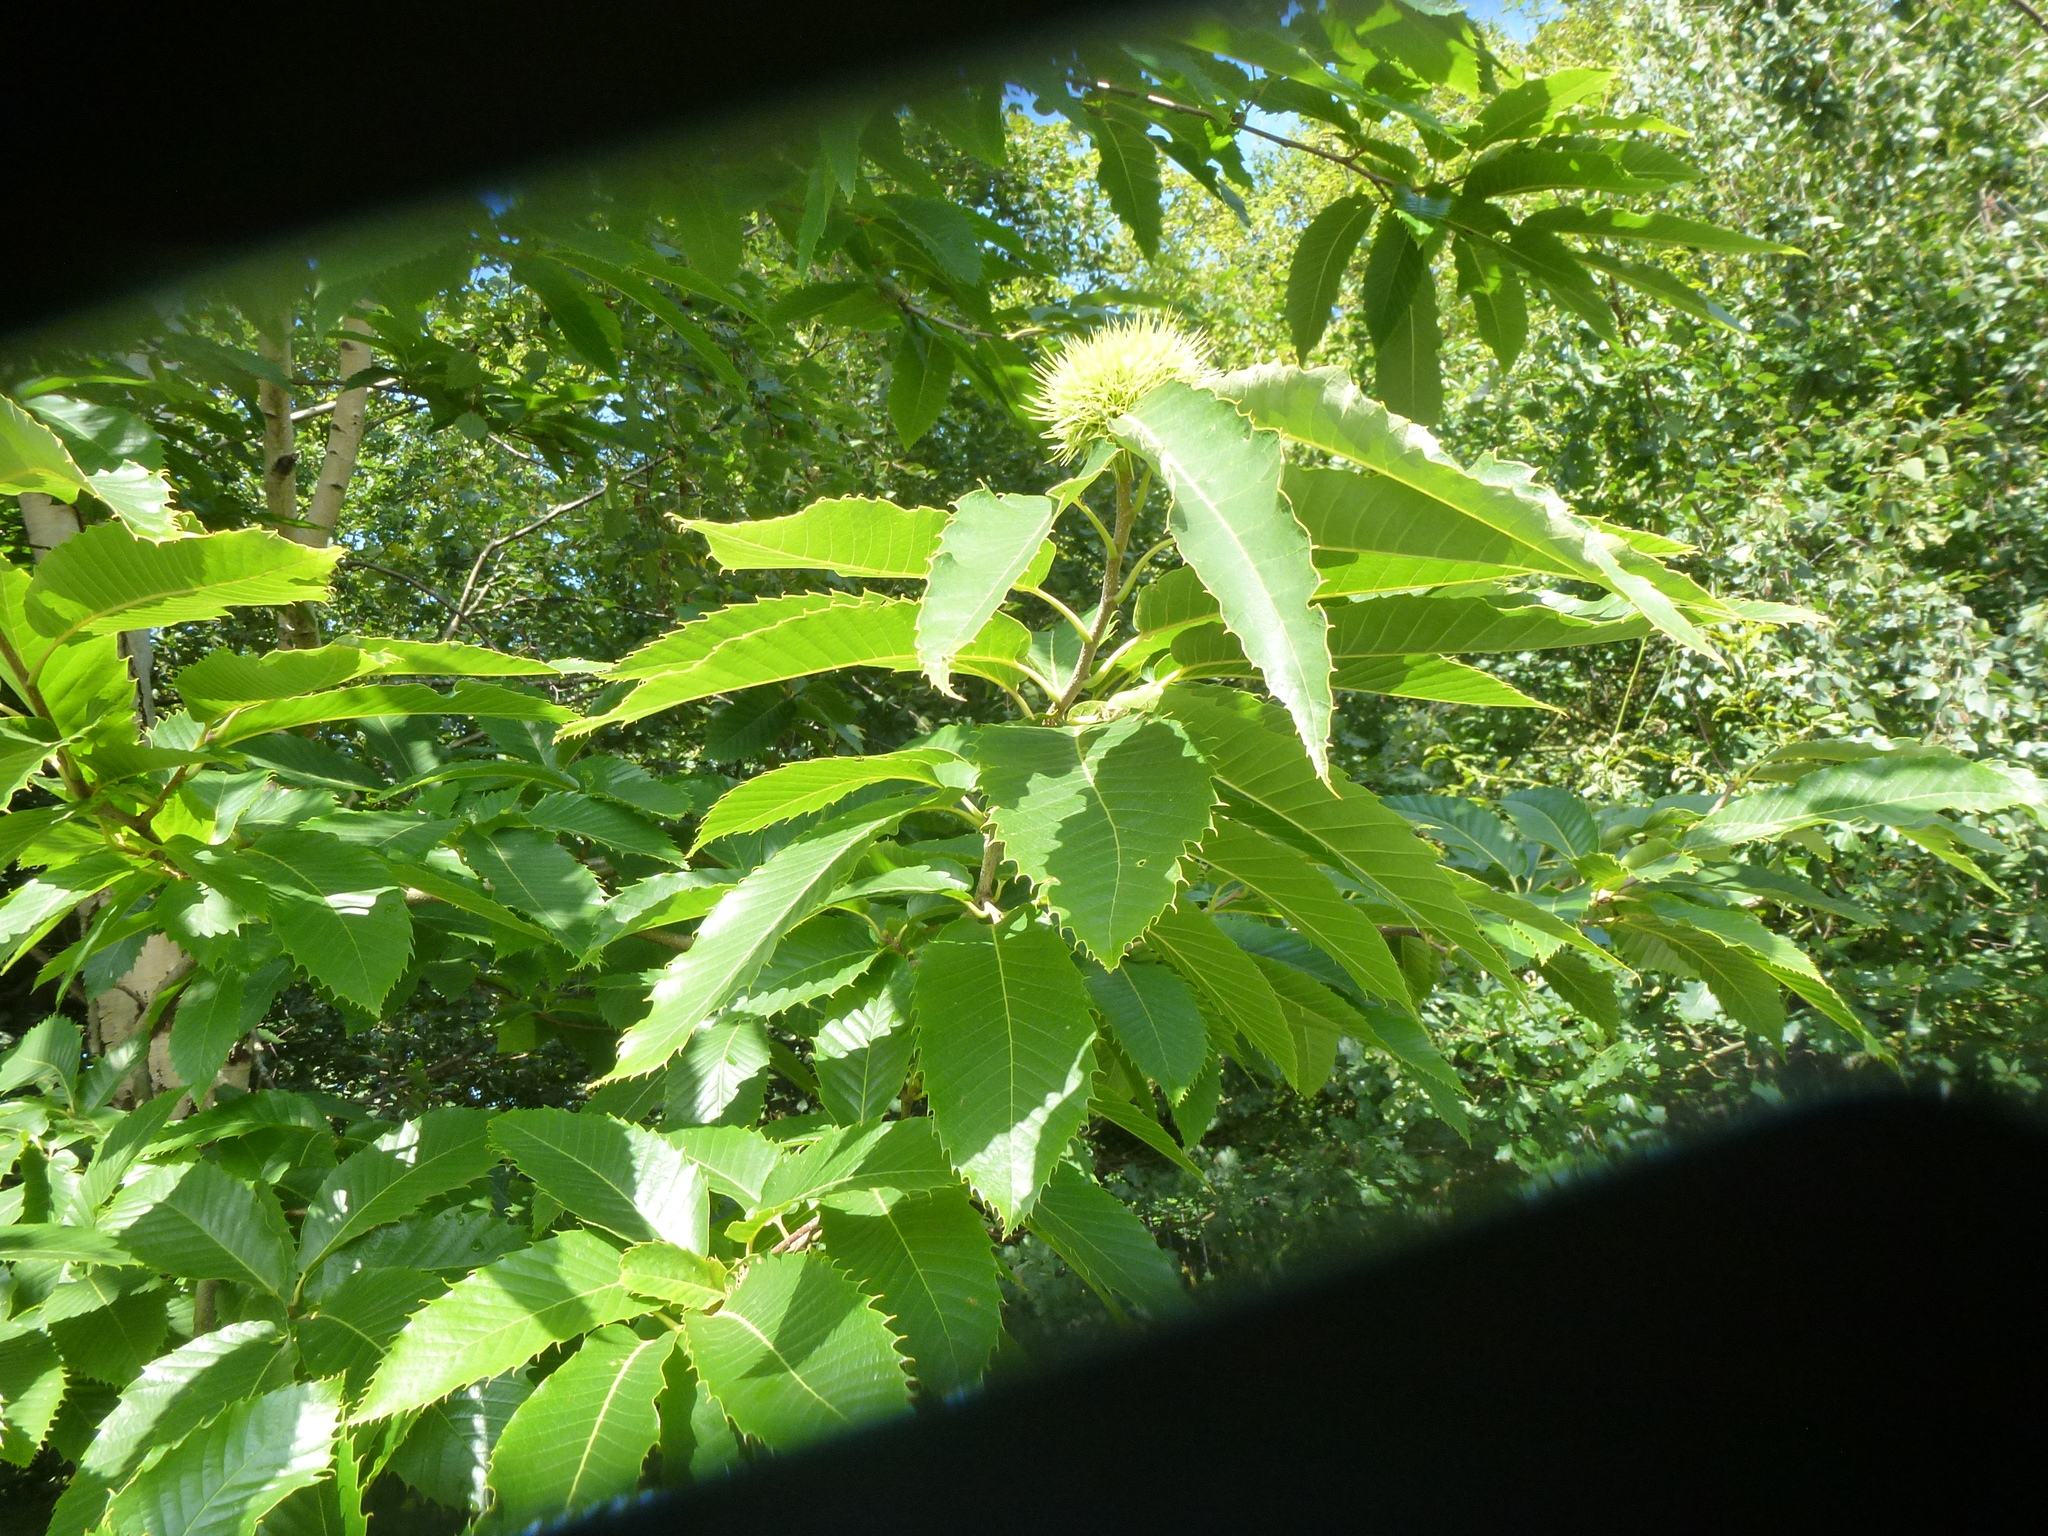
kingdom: Plantae
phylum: Tracheophyta
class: Magnoliopsida
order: Fagales
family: Fagaceae
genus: Castanea
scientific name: Castanea sativa
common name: Sweet chestnut
